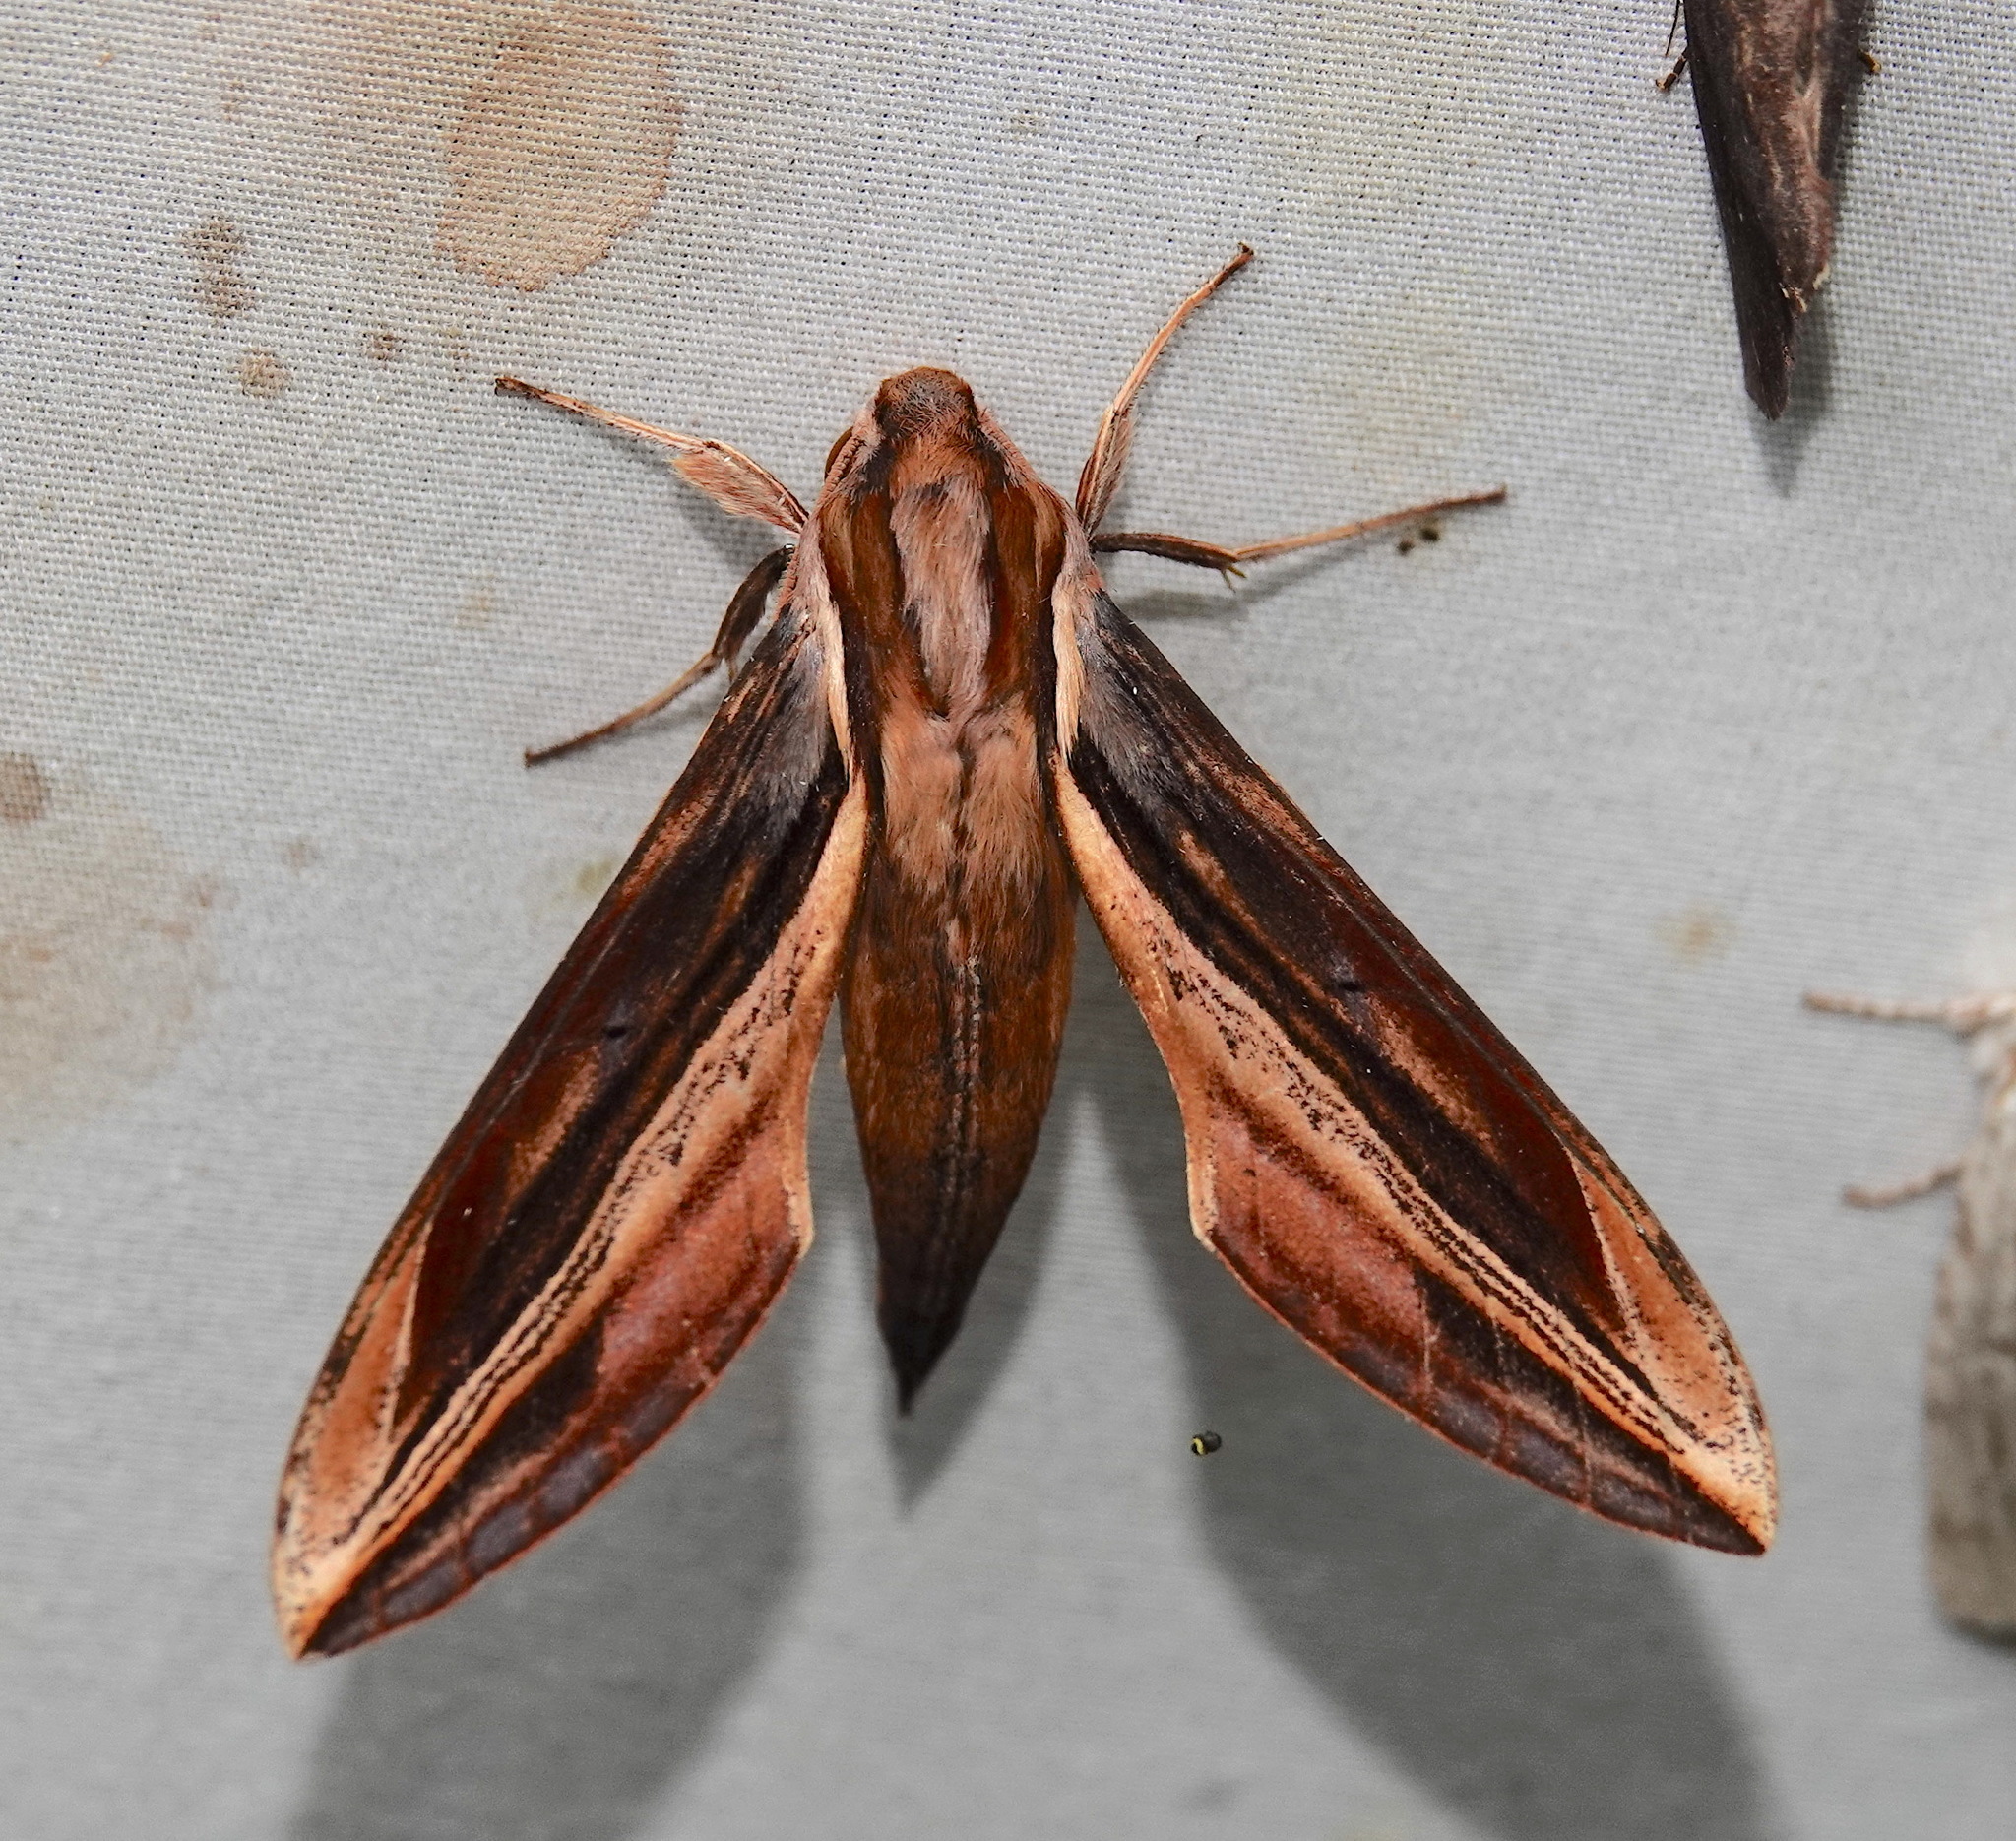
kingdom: Animalia
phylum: Arthropoda
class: Insecta
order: Lepidoptera
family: Sphingidae
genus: Xylophanes
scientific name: Xylophanes thyelia
